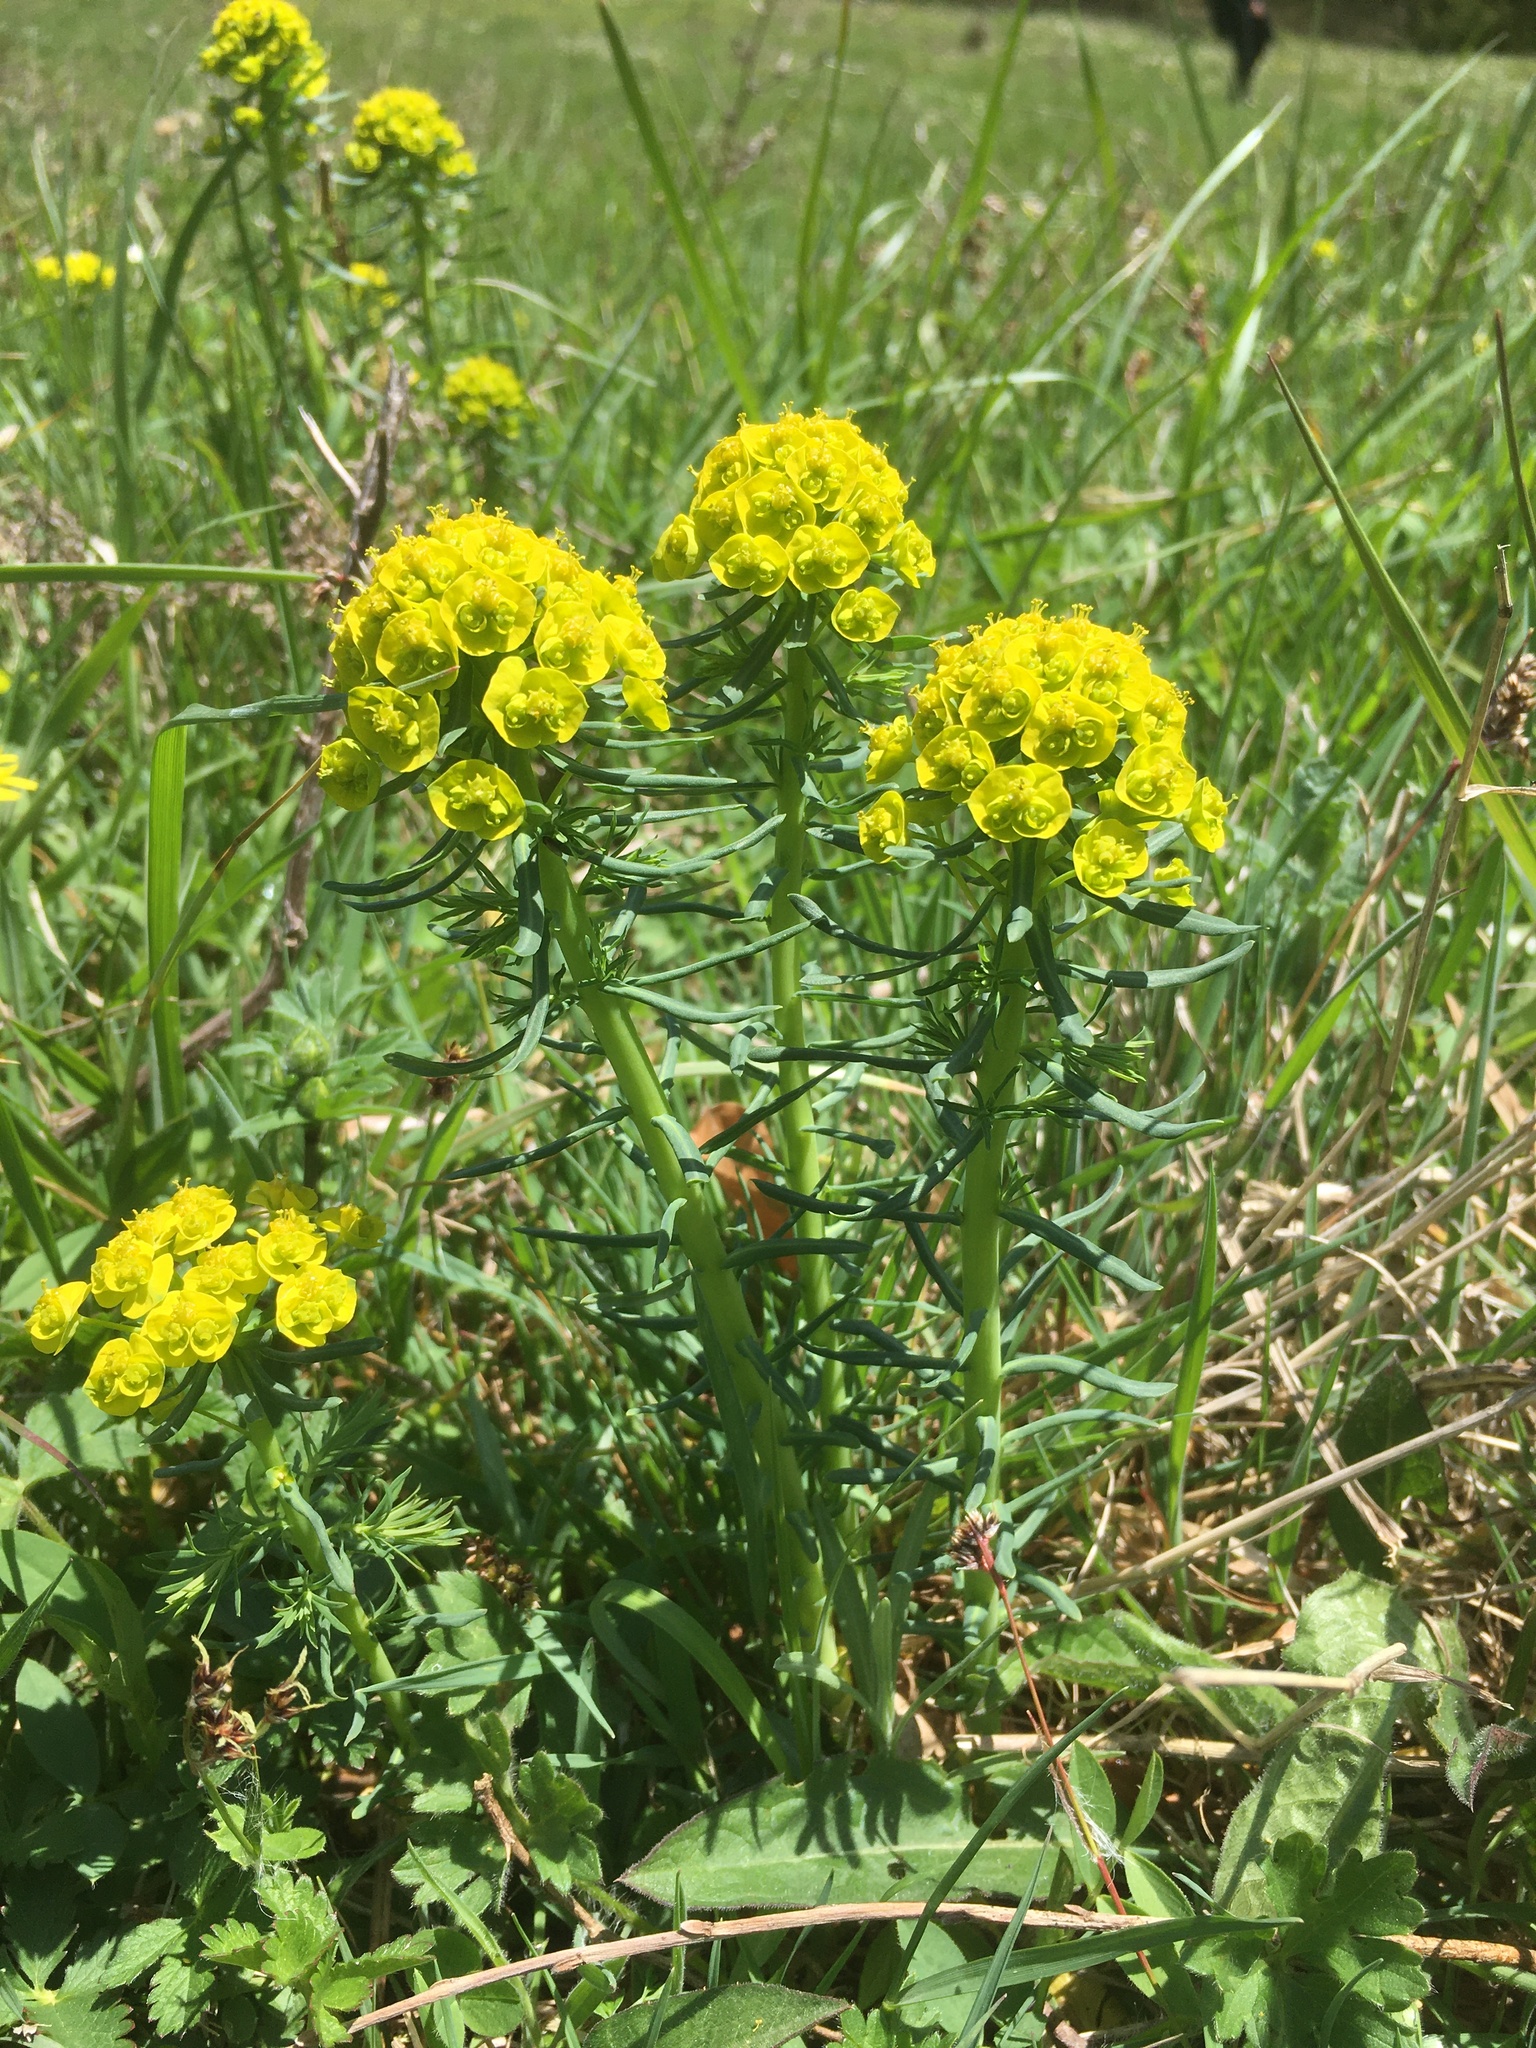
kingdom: Plantae
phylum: Tracheophyta
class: Magnoliopsida
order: Malpighiales
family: Euphorbiaceae
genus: Euphorbia
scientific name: Euphorbia cyparissias
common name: Cypress spurge
